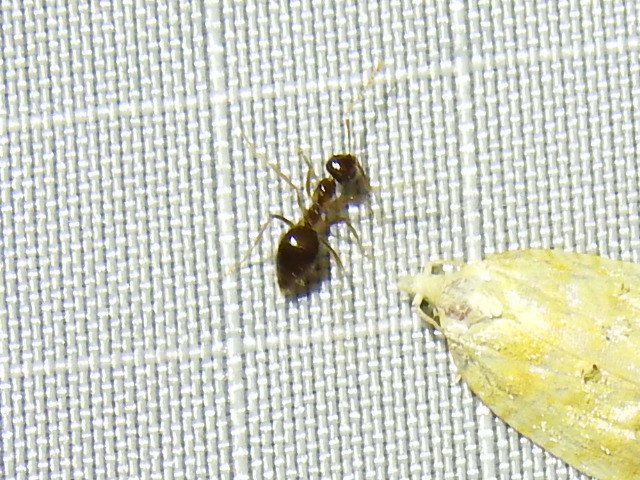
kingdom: Animalia
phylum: Arthropoda
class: Insecta
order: Hymenoptera
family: Formicidae
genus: Prenolepis
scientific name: Prenolepis imparis
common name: Small honey ant
